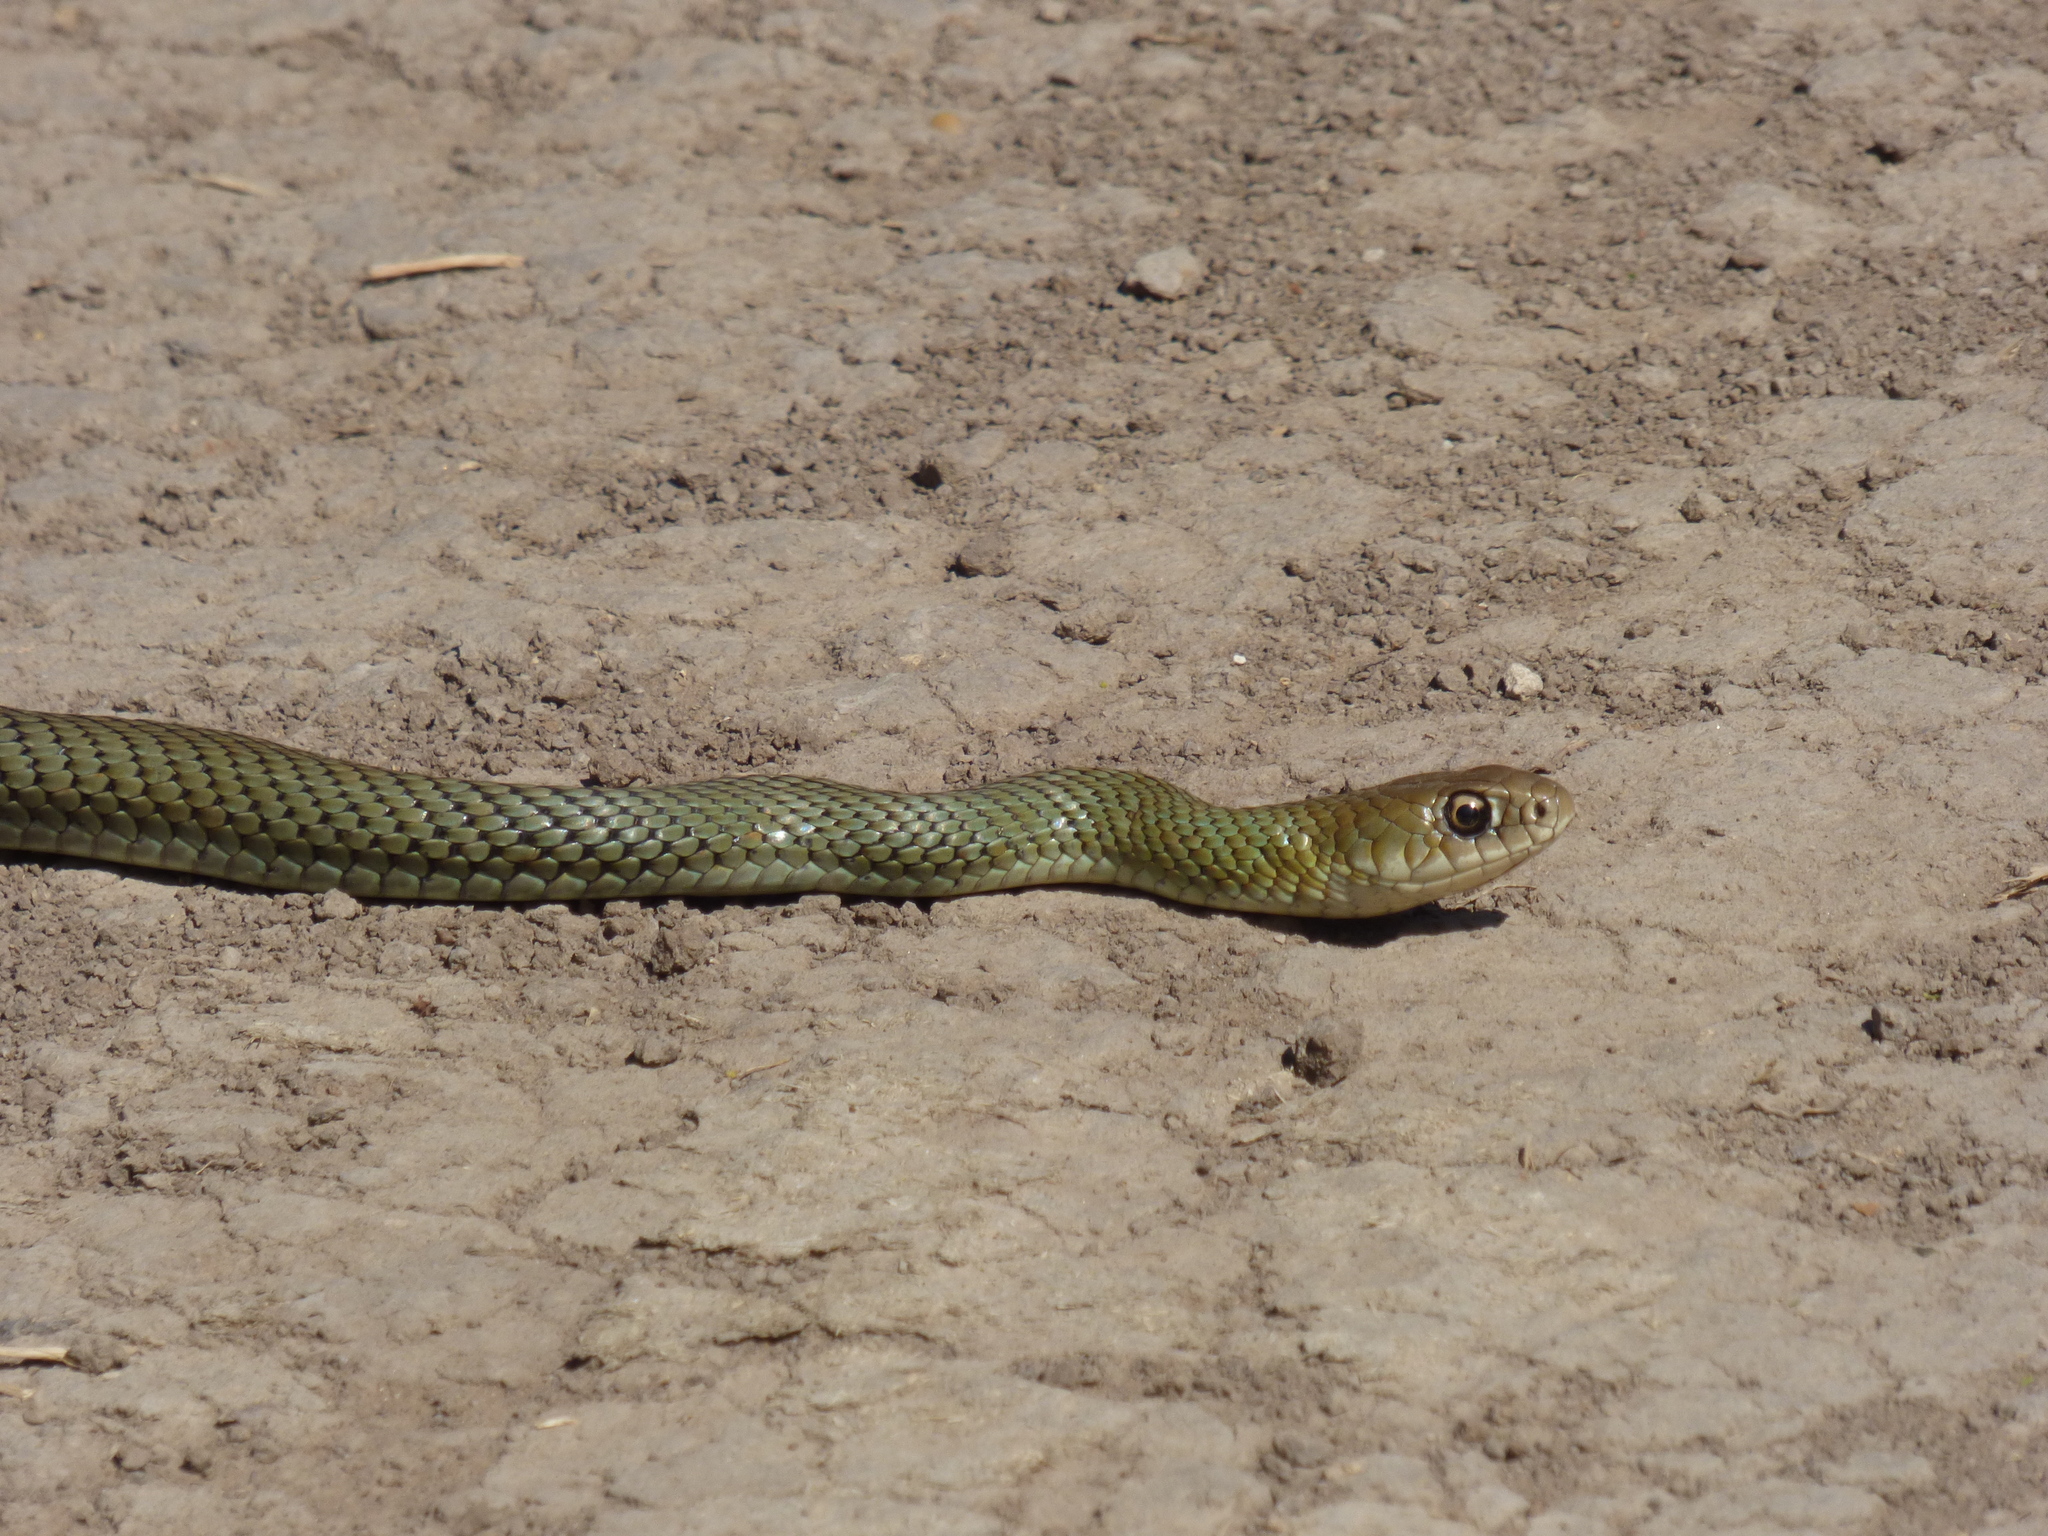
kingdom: Animalia
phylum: Chordata
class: Squamata
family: Colubridae
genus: Philodryas
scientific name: Philodryas patagoniensis
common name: Patagonia green racer
